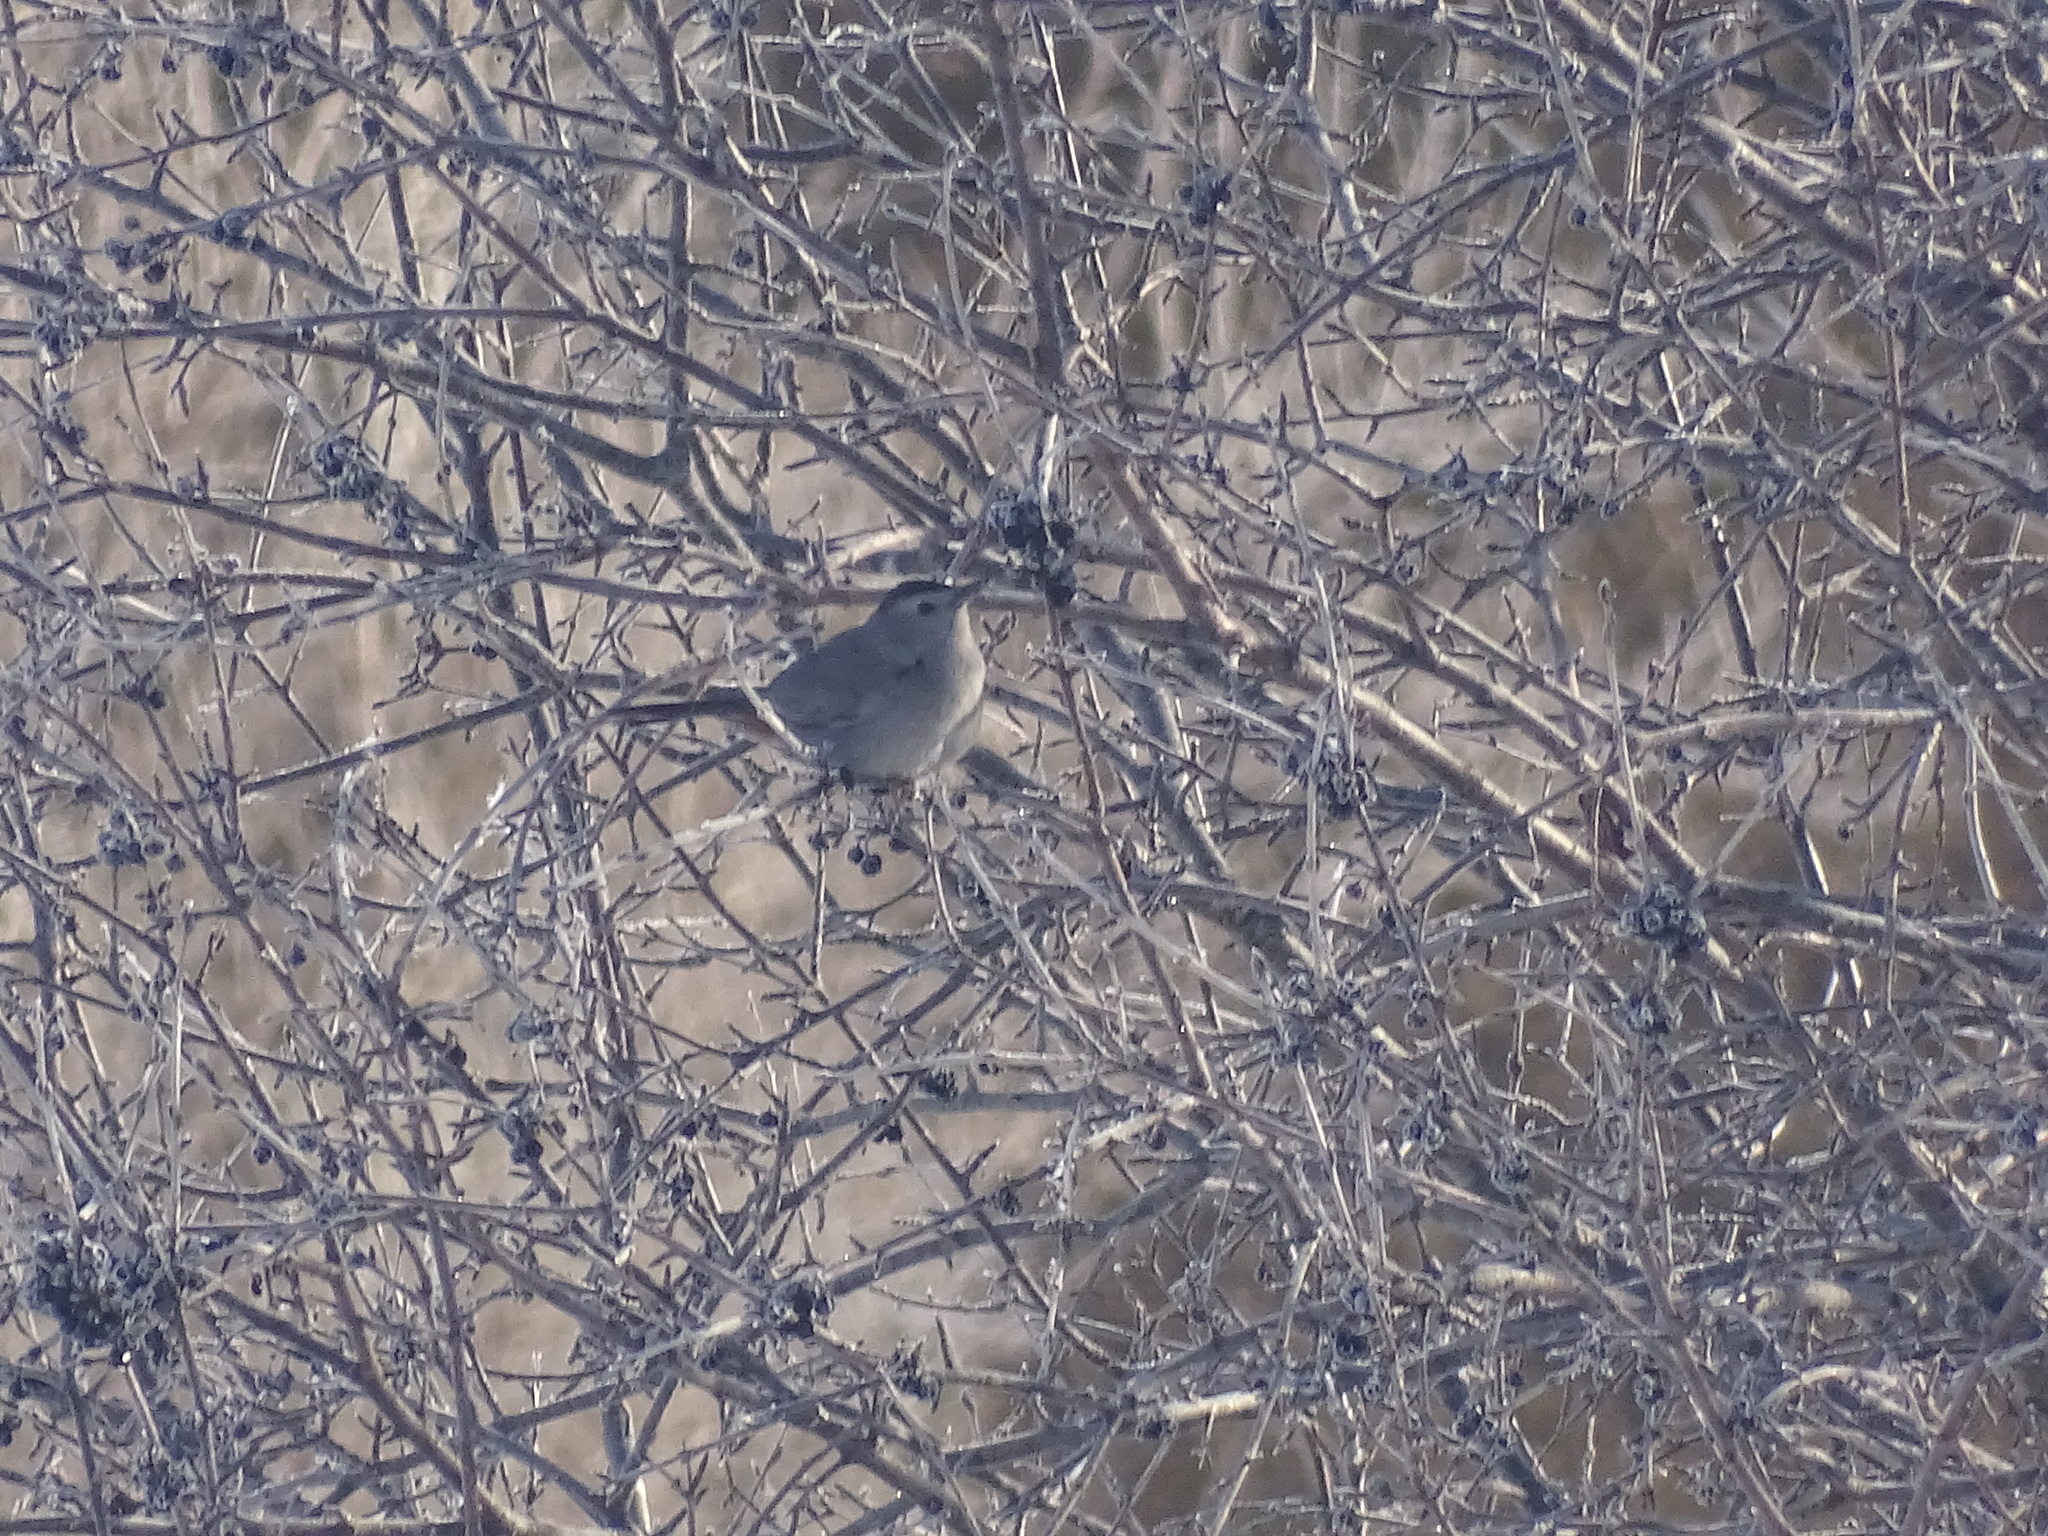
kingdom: Animalia
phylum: Chordata
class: Aves
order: Passeriformes
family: Mimidae
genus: Dumetella
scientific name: Dumetella carolinensis
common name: Gray catbird
